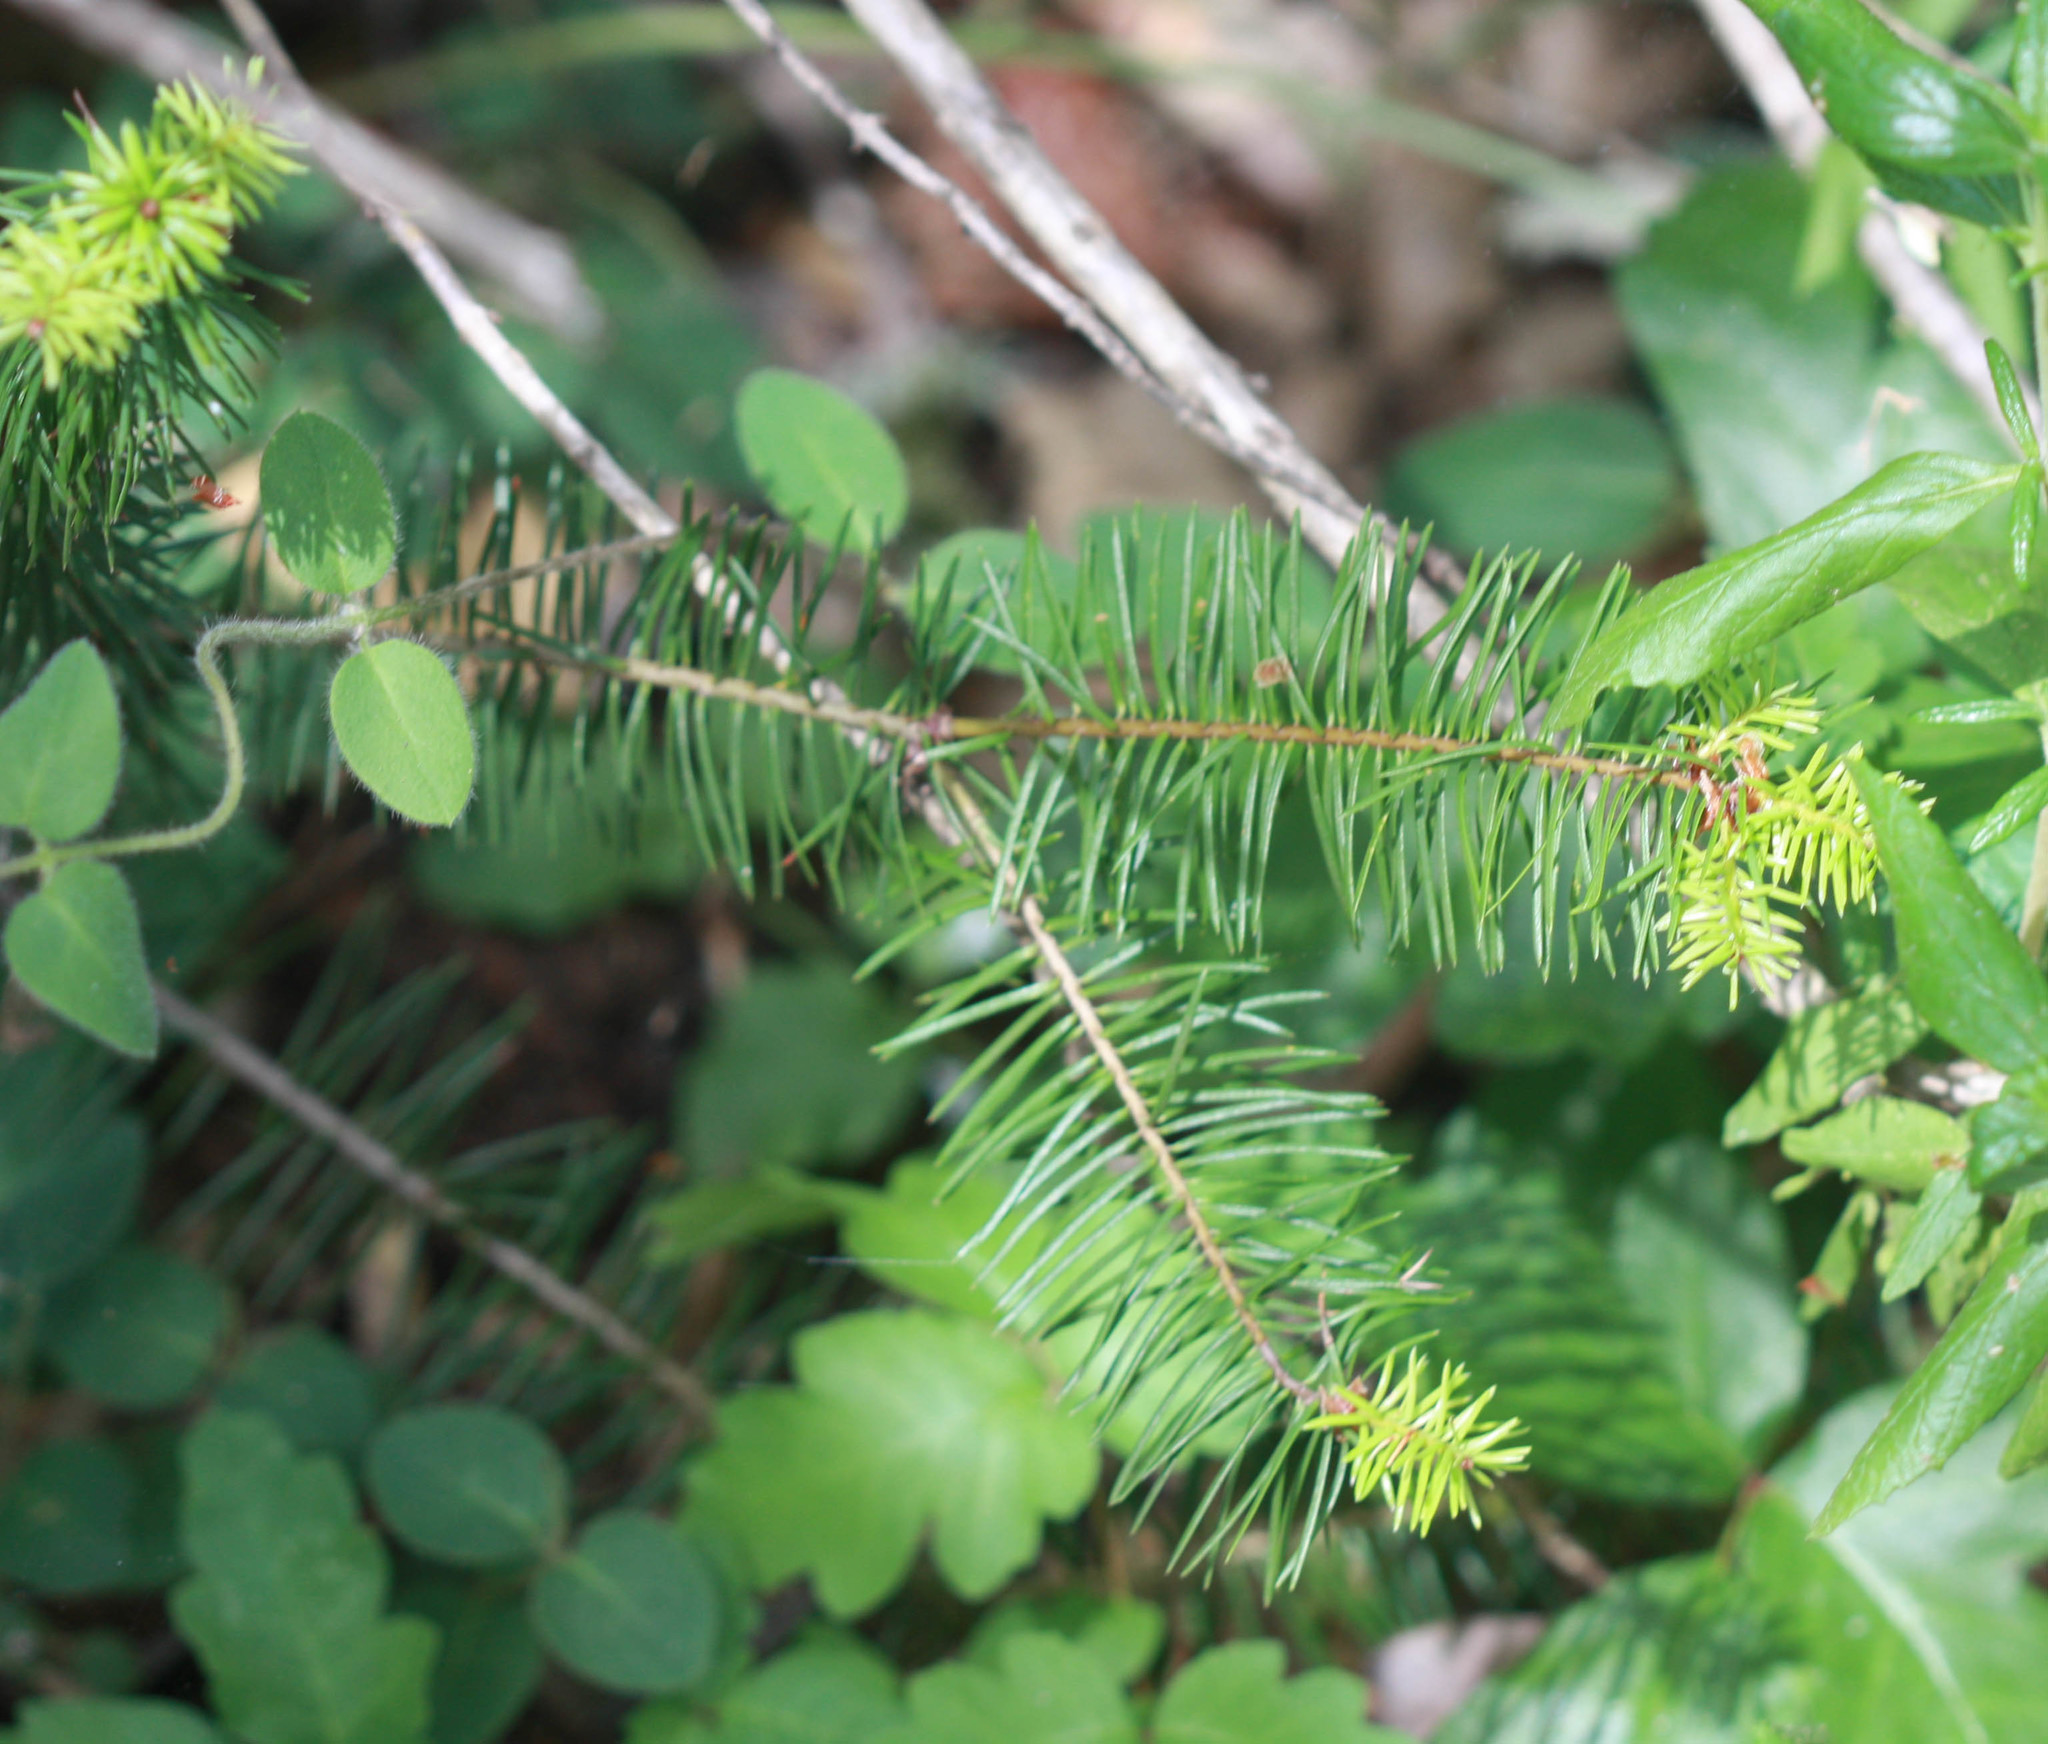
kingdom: Plantae
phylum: Tracheophyta
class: Pinopsida
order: Pinales
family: Pinaceae
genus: Pseudotsuga
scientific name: Pseudotsuga menziesii
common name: Douglas fir
